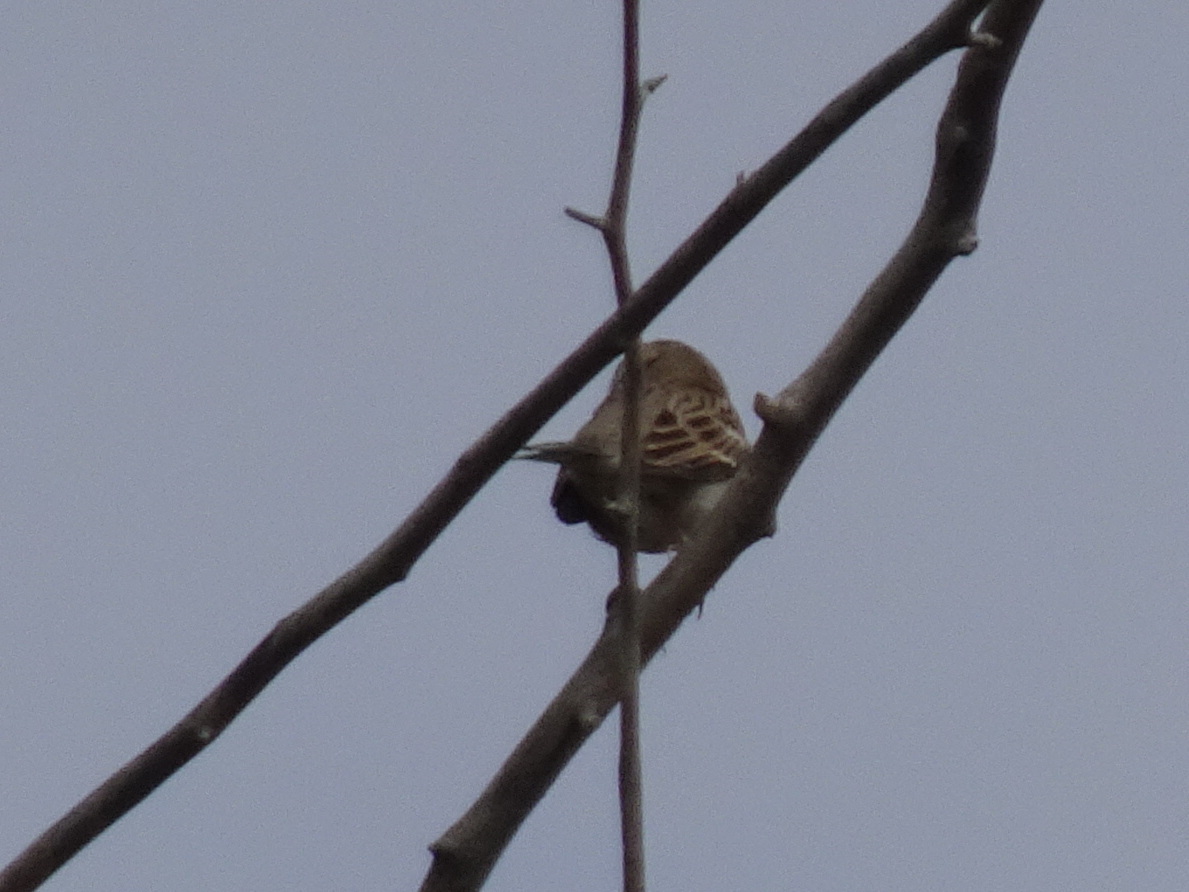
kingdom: Animalia
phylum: Chordata
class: Aves
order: Passeriformes
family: Passerellidae
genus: Chondestes
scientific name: Chondestes grammacus
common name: Lark sparrow
